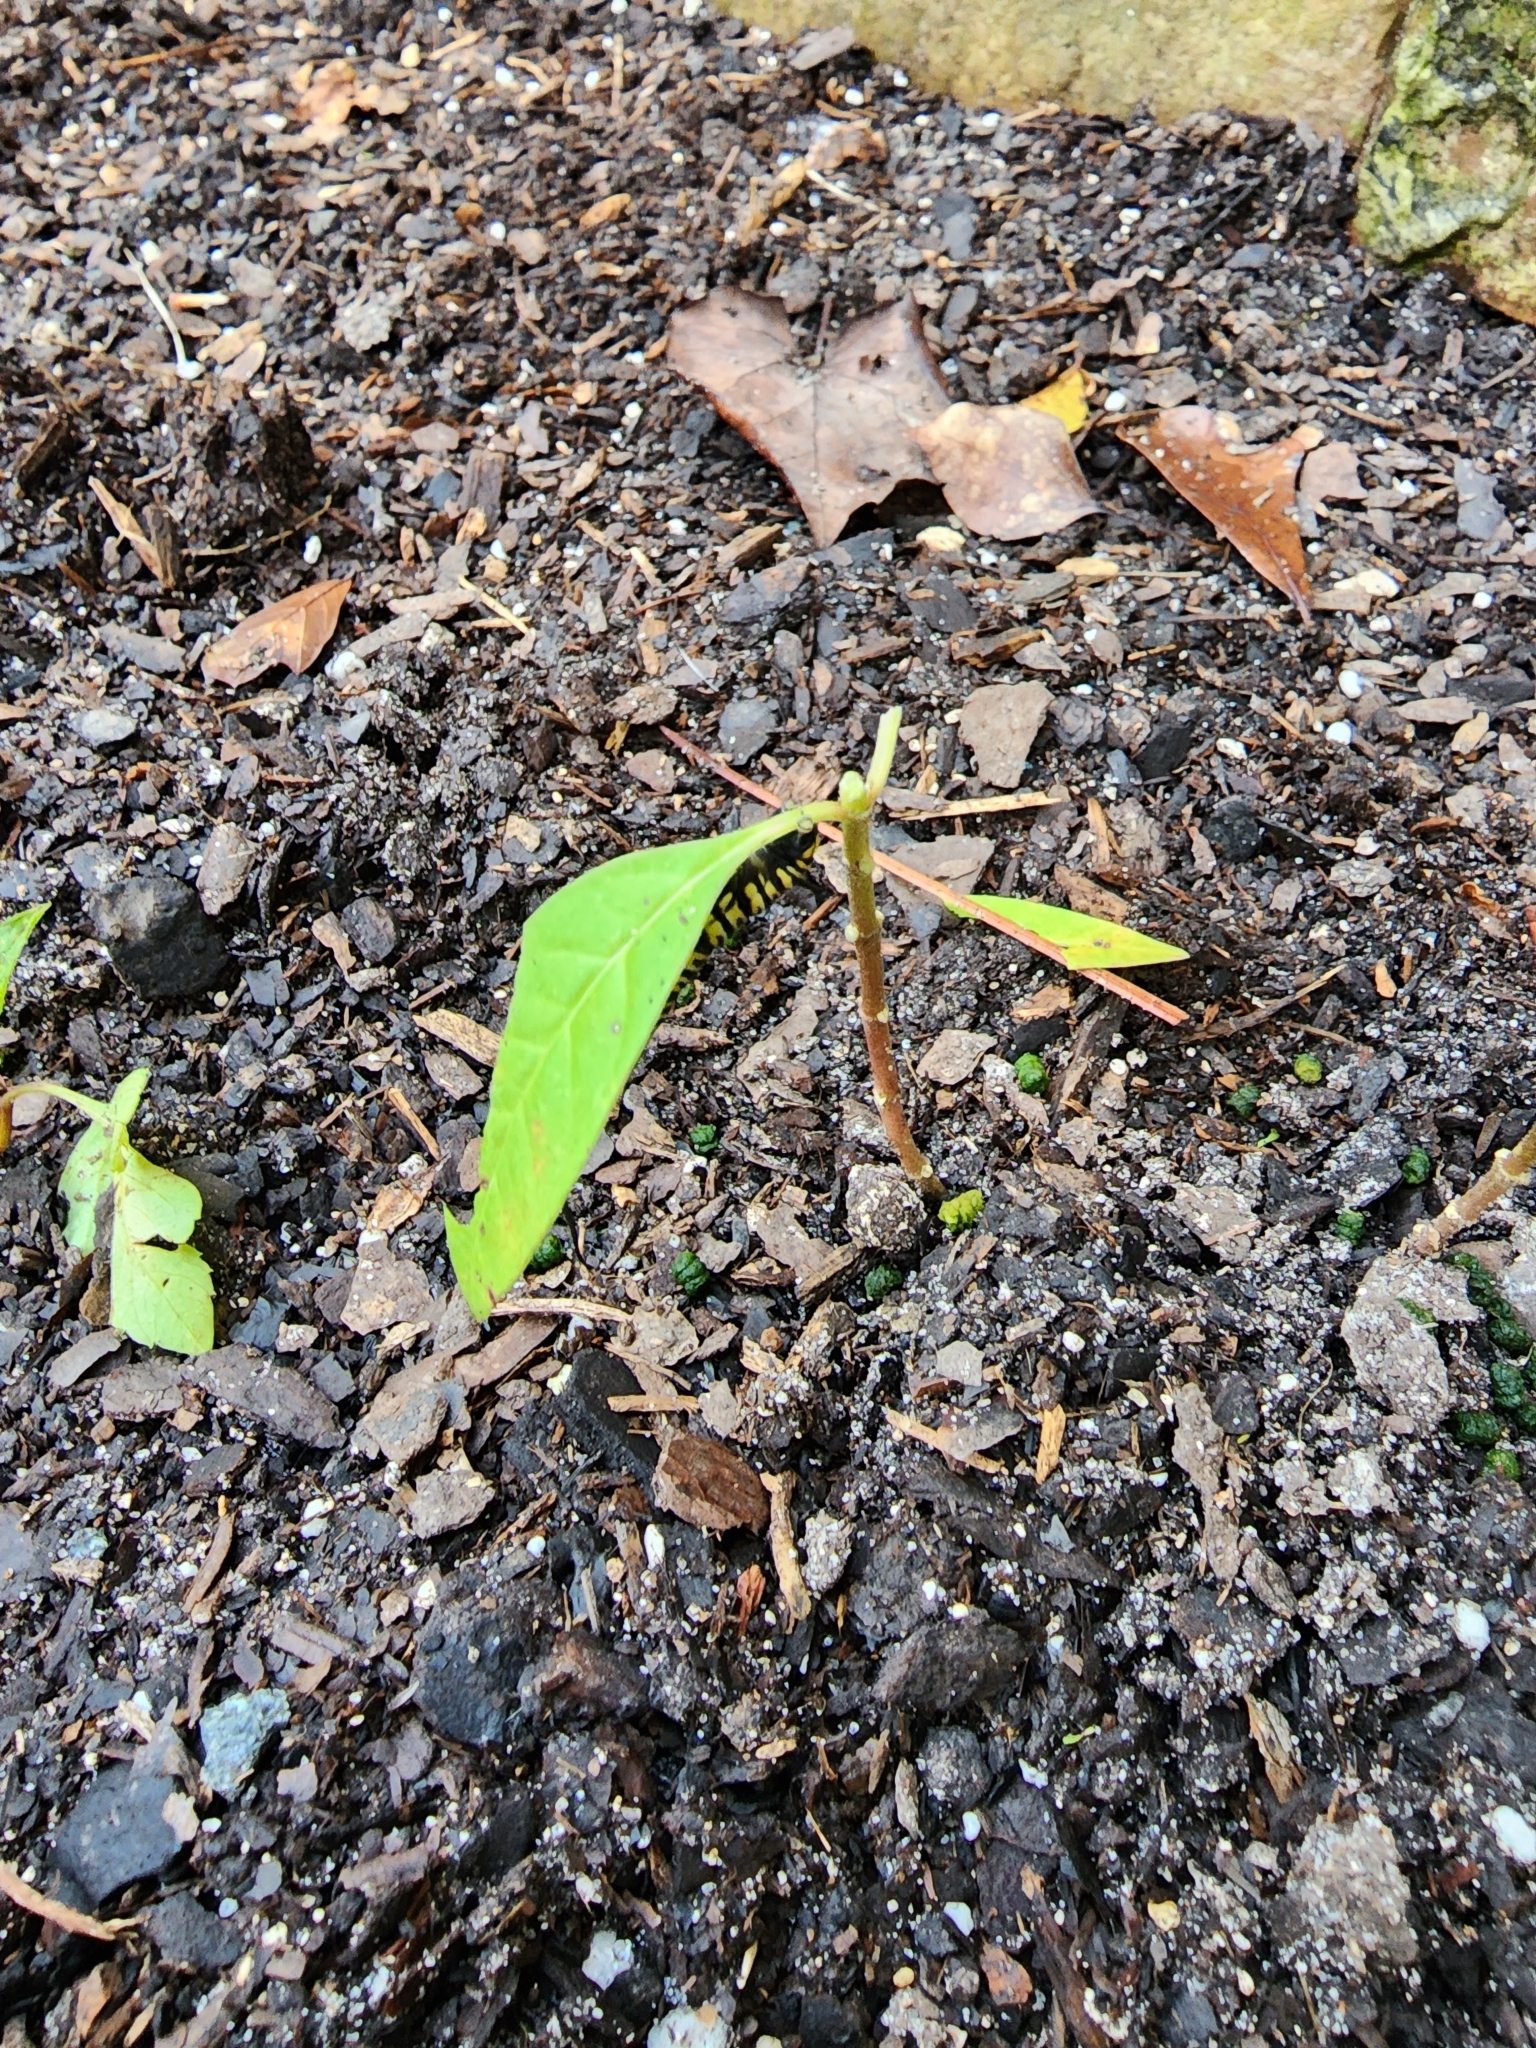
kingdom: Animalia
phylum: Arthropoda
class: Insecta
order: Lepidoptera
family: Nymphalidae
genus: Danaus
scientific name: Danaus plexippus
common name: Monarch
